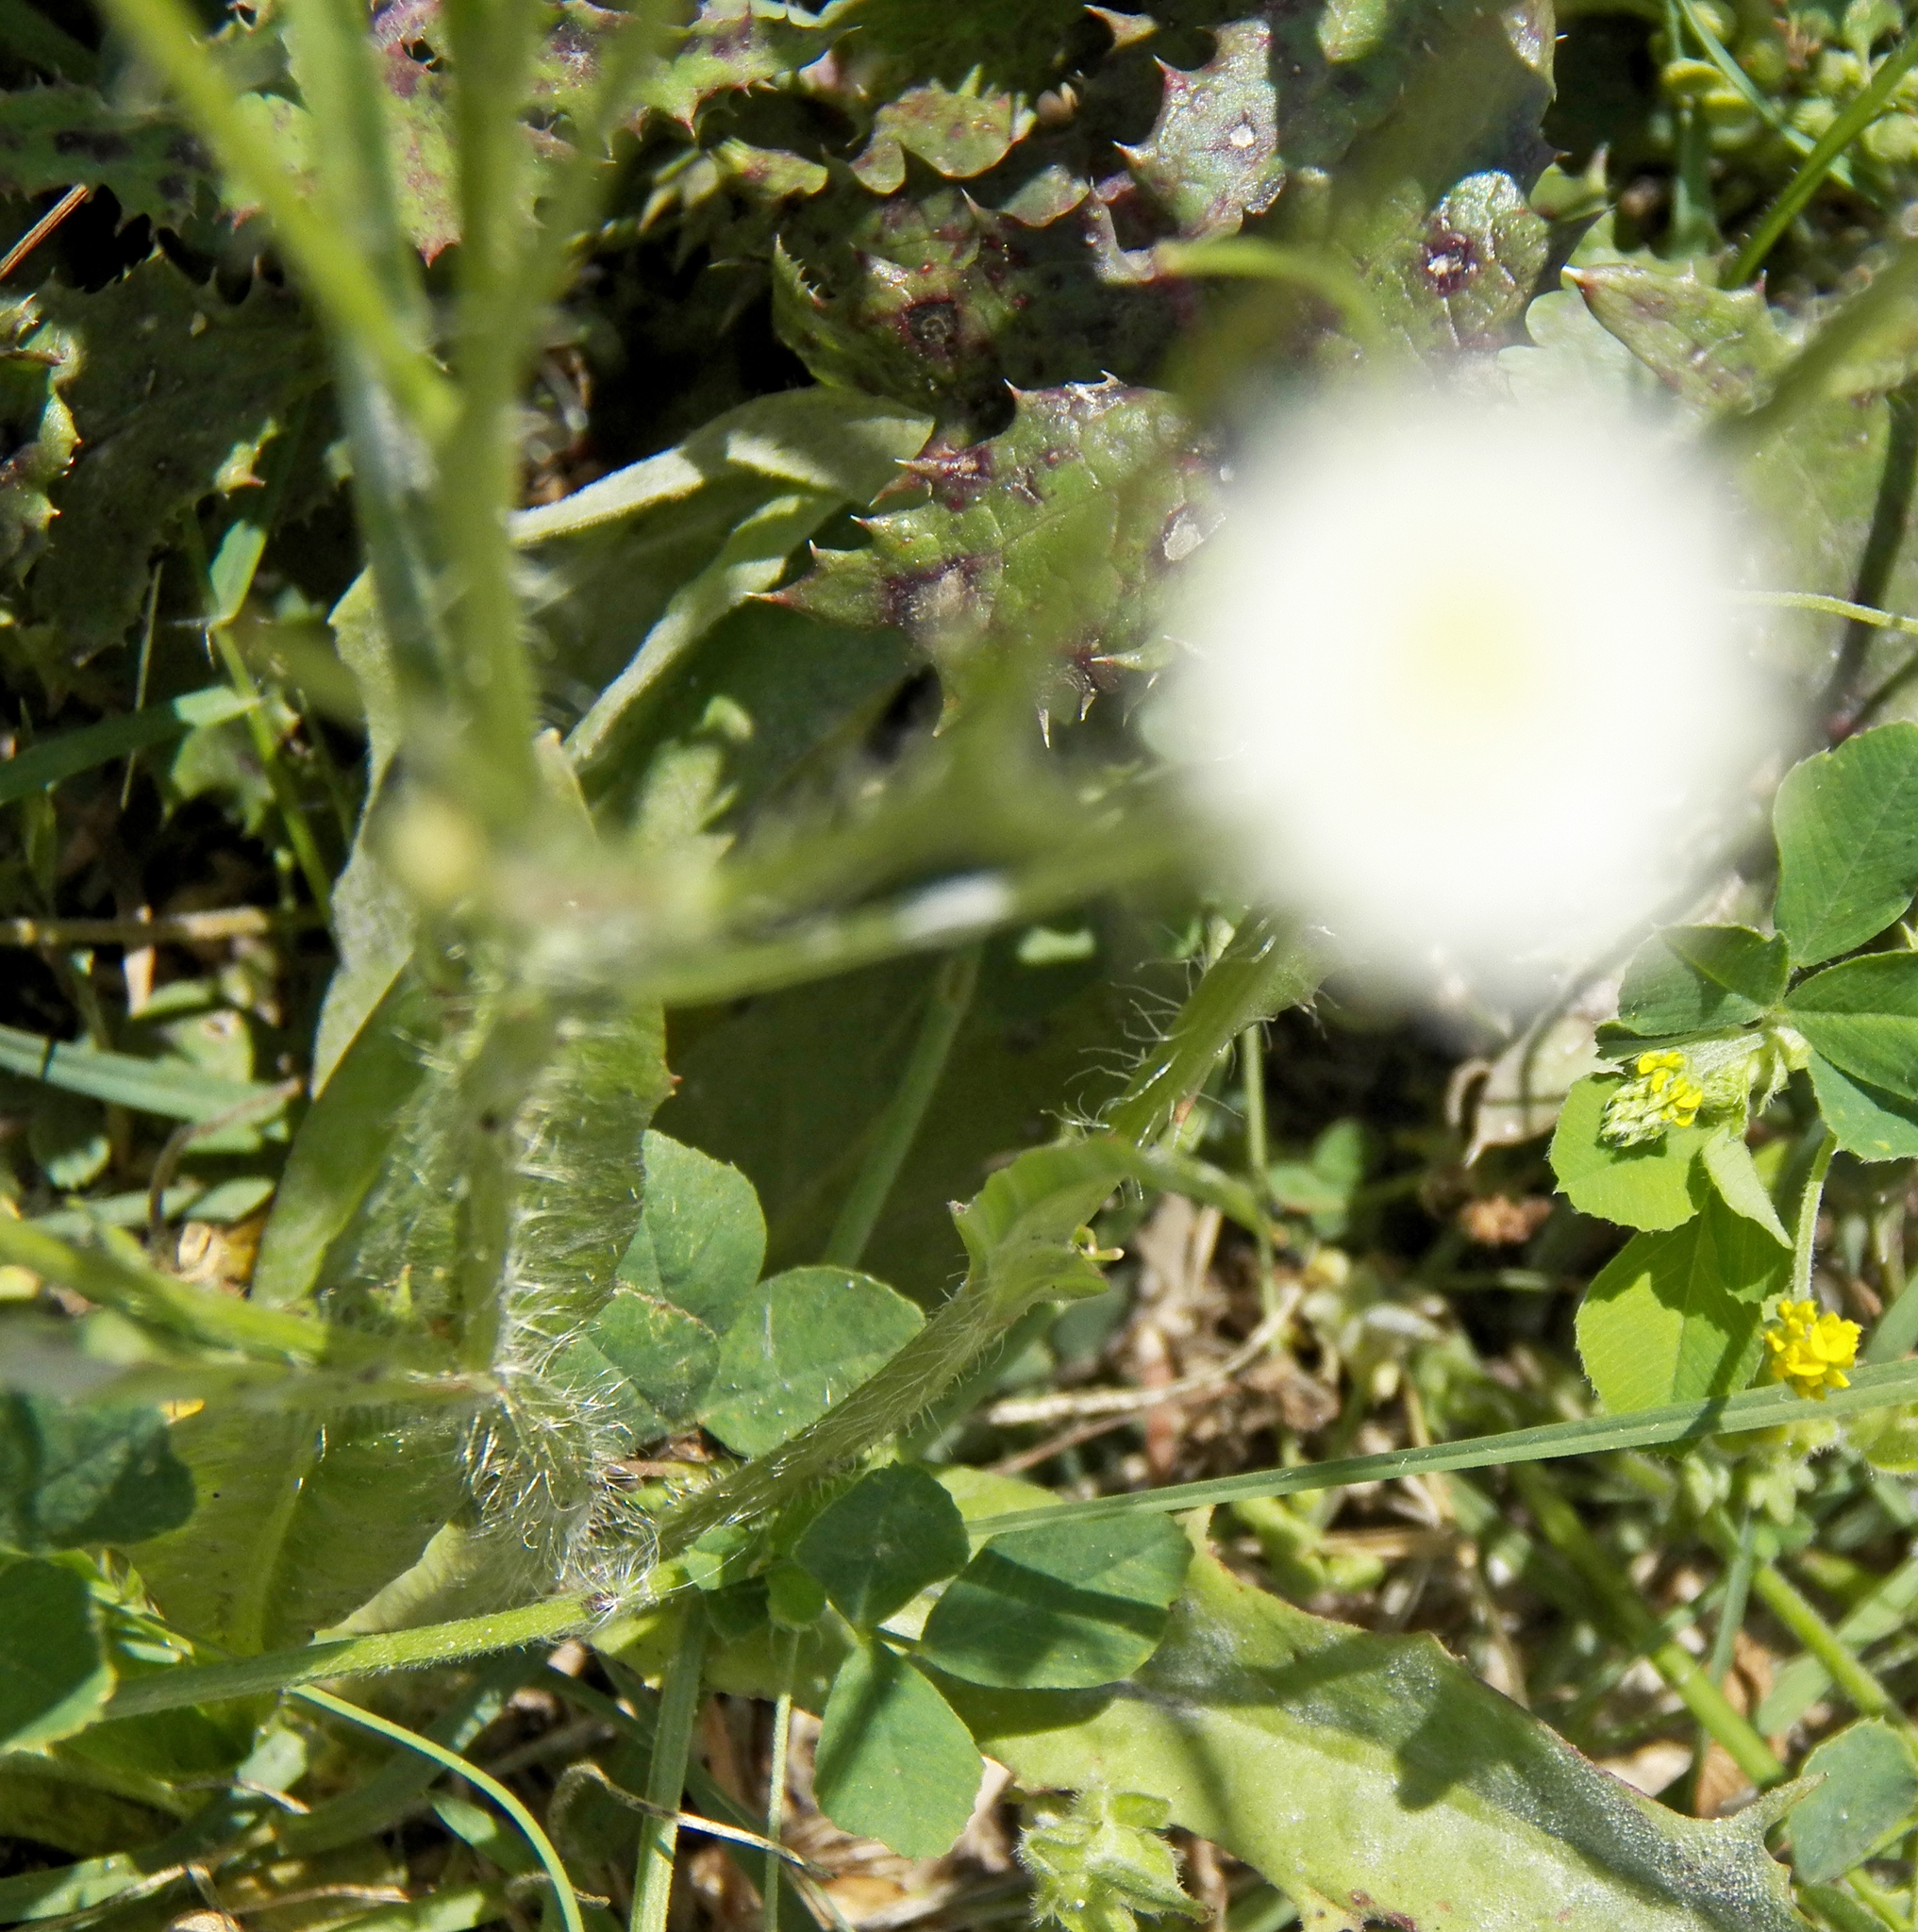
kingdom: Plantae
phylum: Tracheophyta
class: Magnoliopsida
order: Asterales
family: Asteraceae
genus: Hypochaeris
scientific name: Hypochaeris albiflora
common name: White flatweed
